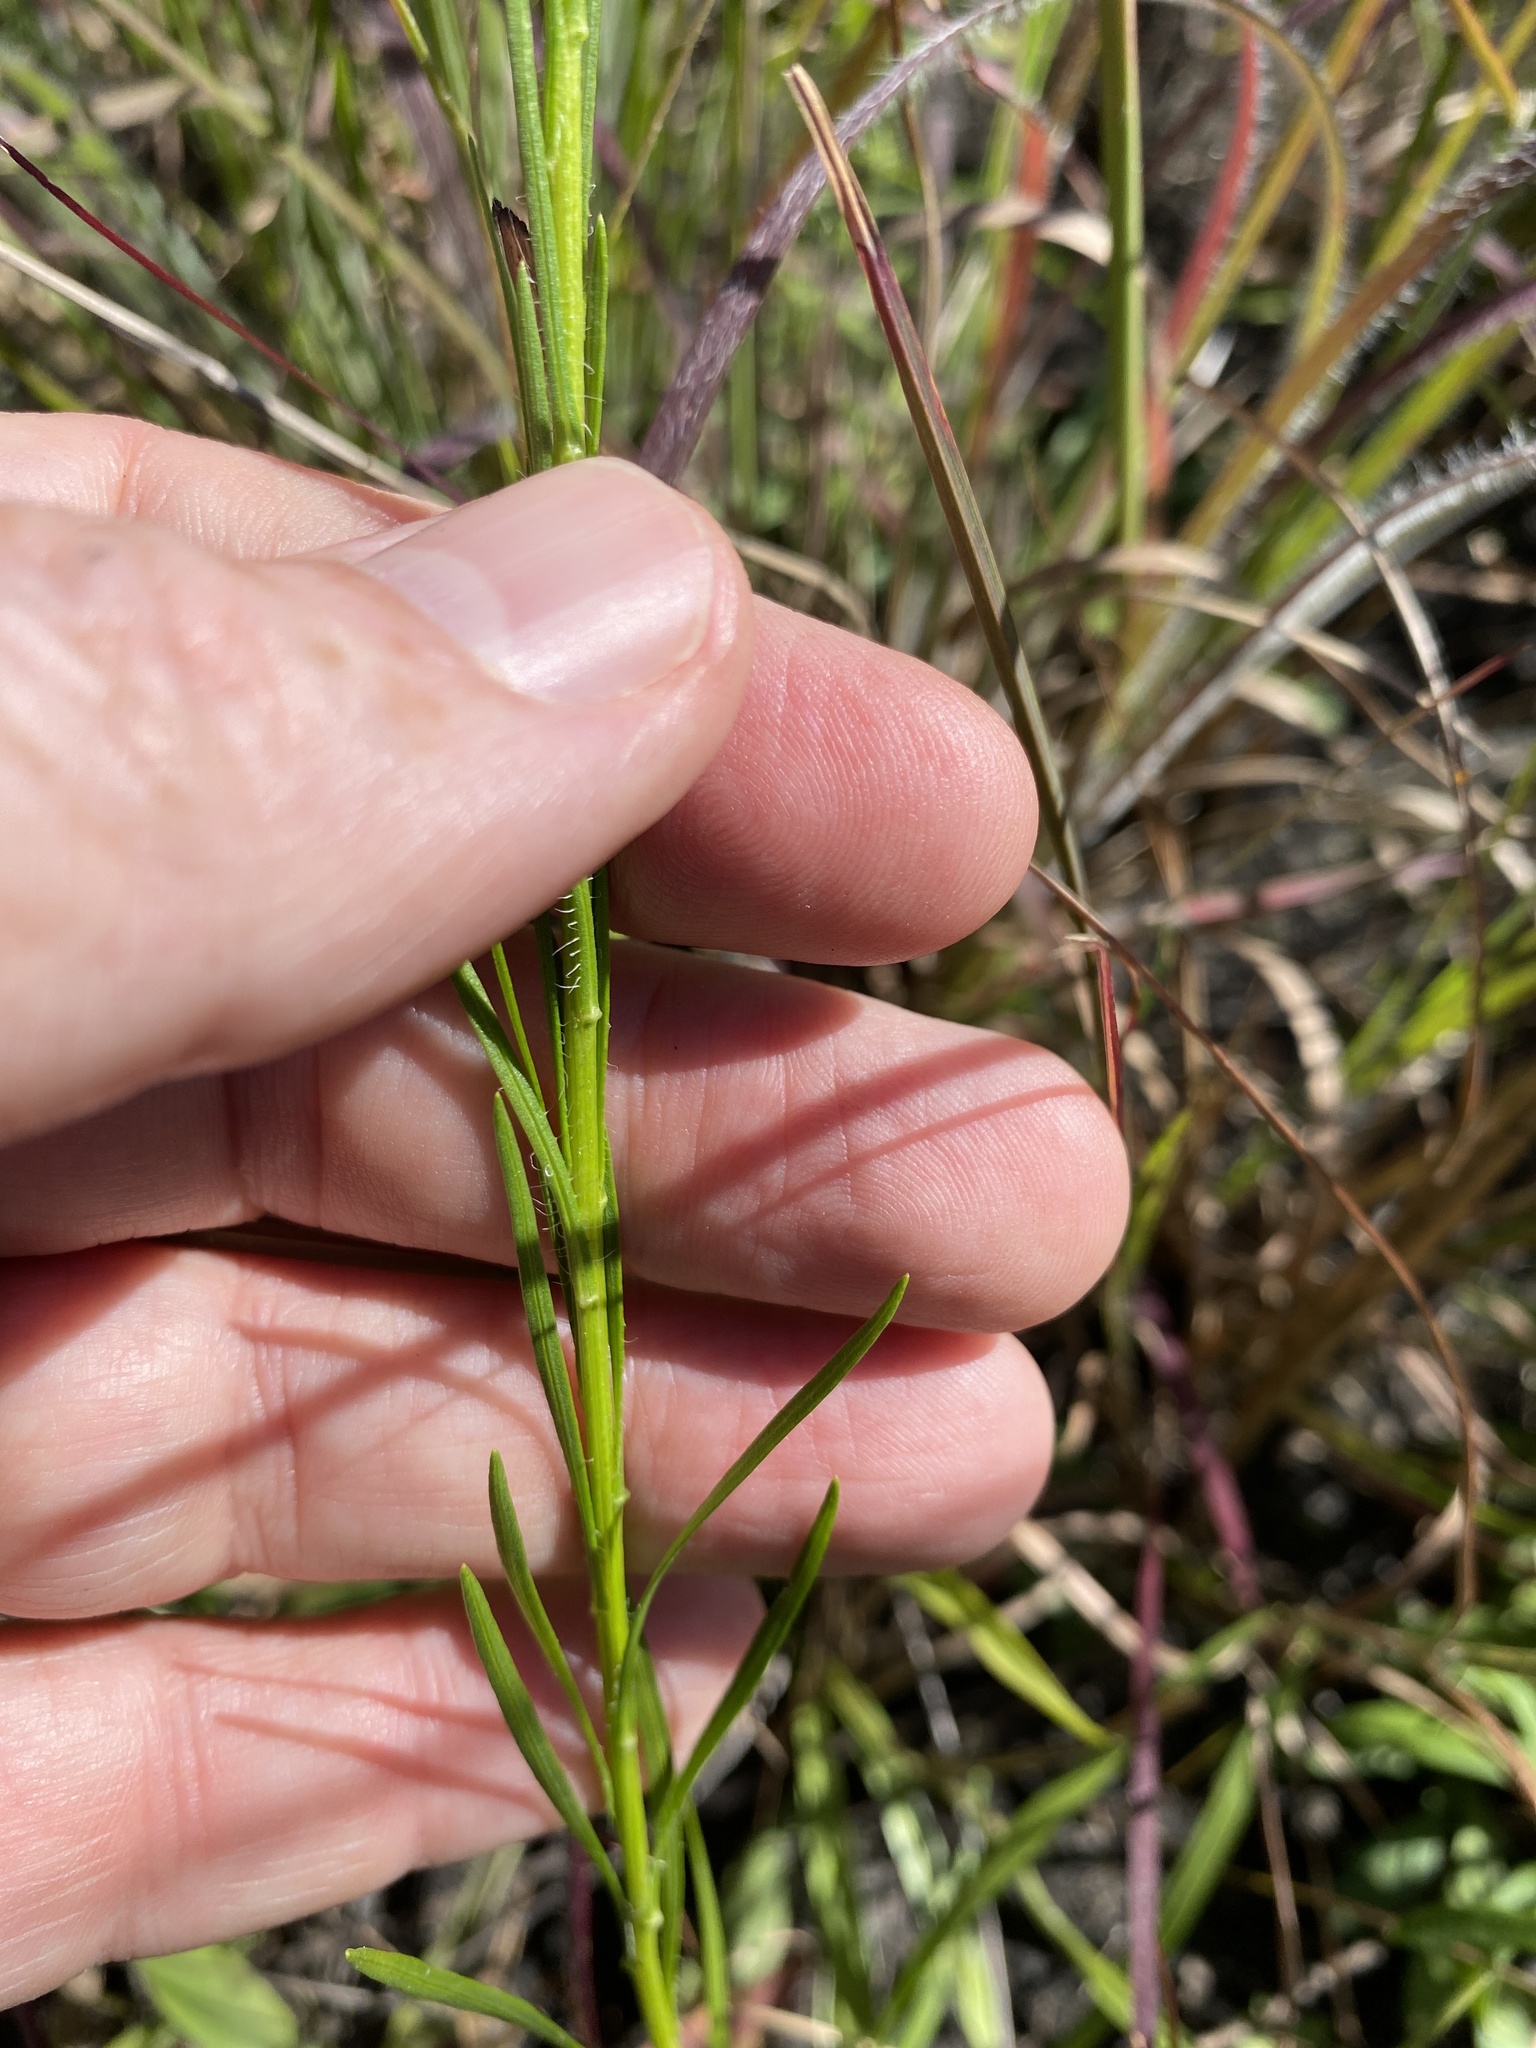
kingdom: Plantae
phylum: Tracheophyta
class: Magnoliopsida
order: Asterales
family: Asteraceae
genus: Liatris
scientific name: Liatris pilosa
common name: Grass-leaf gayfeather
